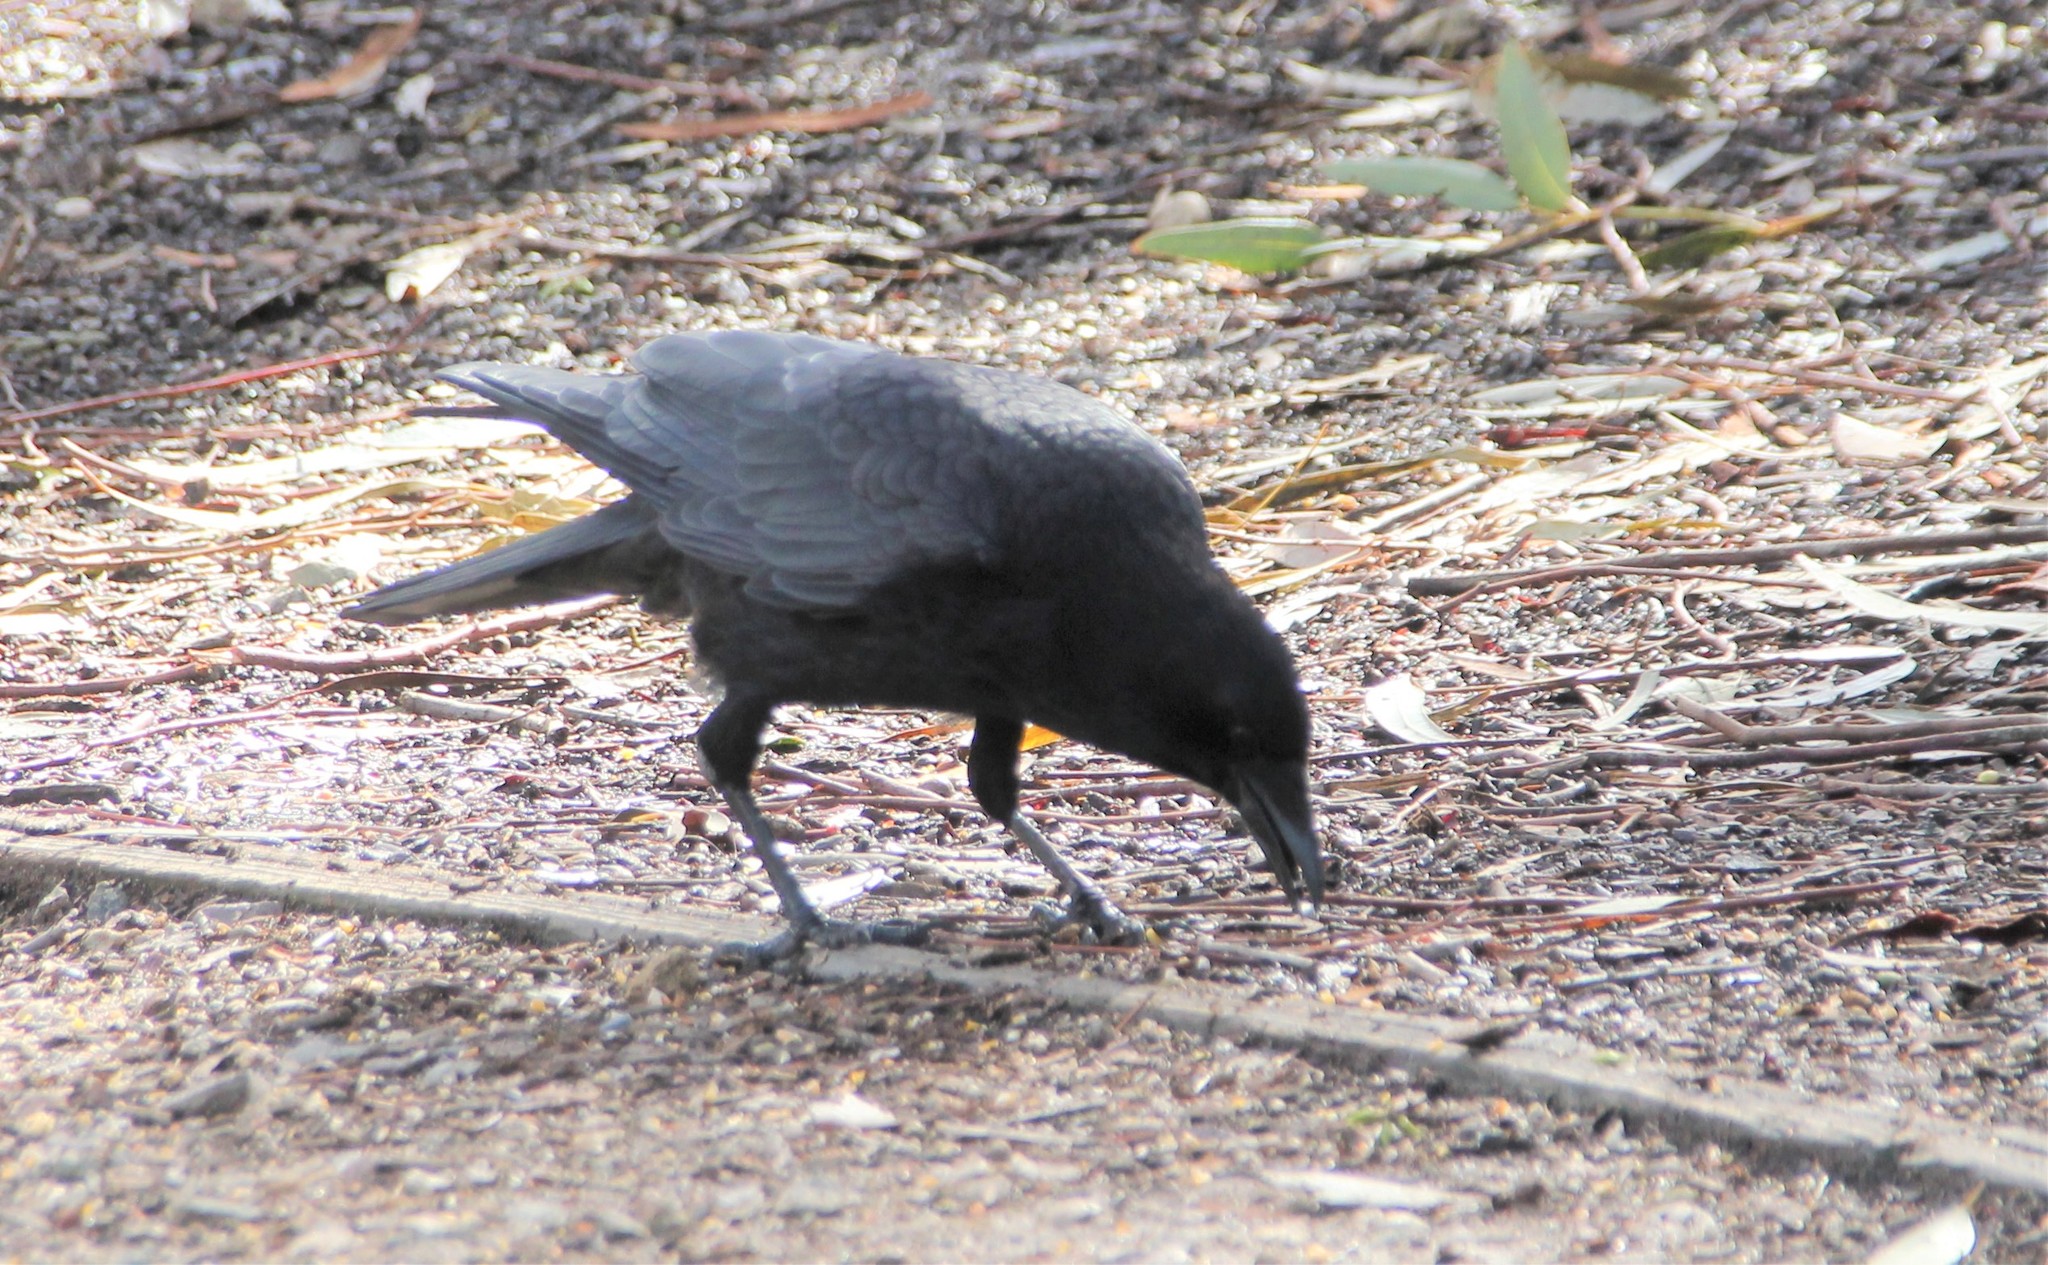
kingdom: Animalia
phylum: Chordata
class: Aves
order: Passeriformes
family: Corvidae
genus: Corvus
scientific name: Corvus brachyrhynchos
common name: American crow
